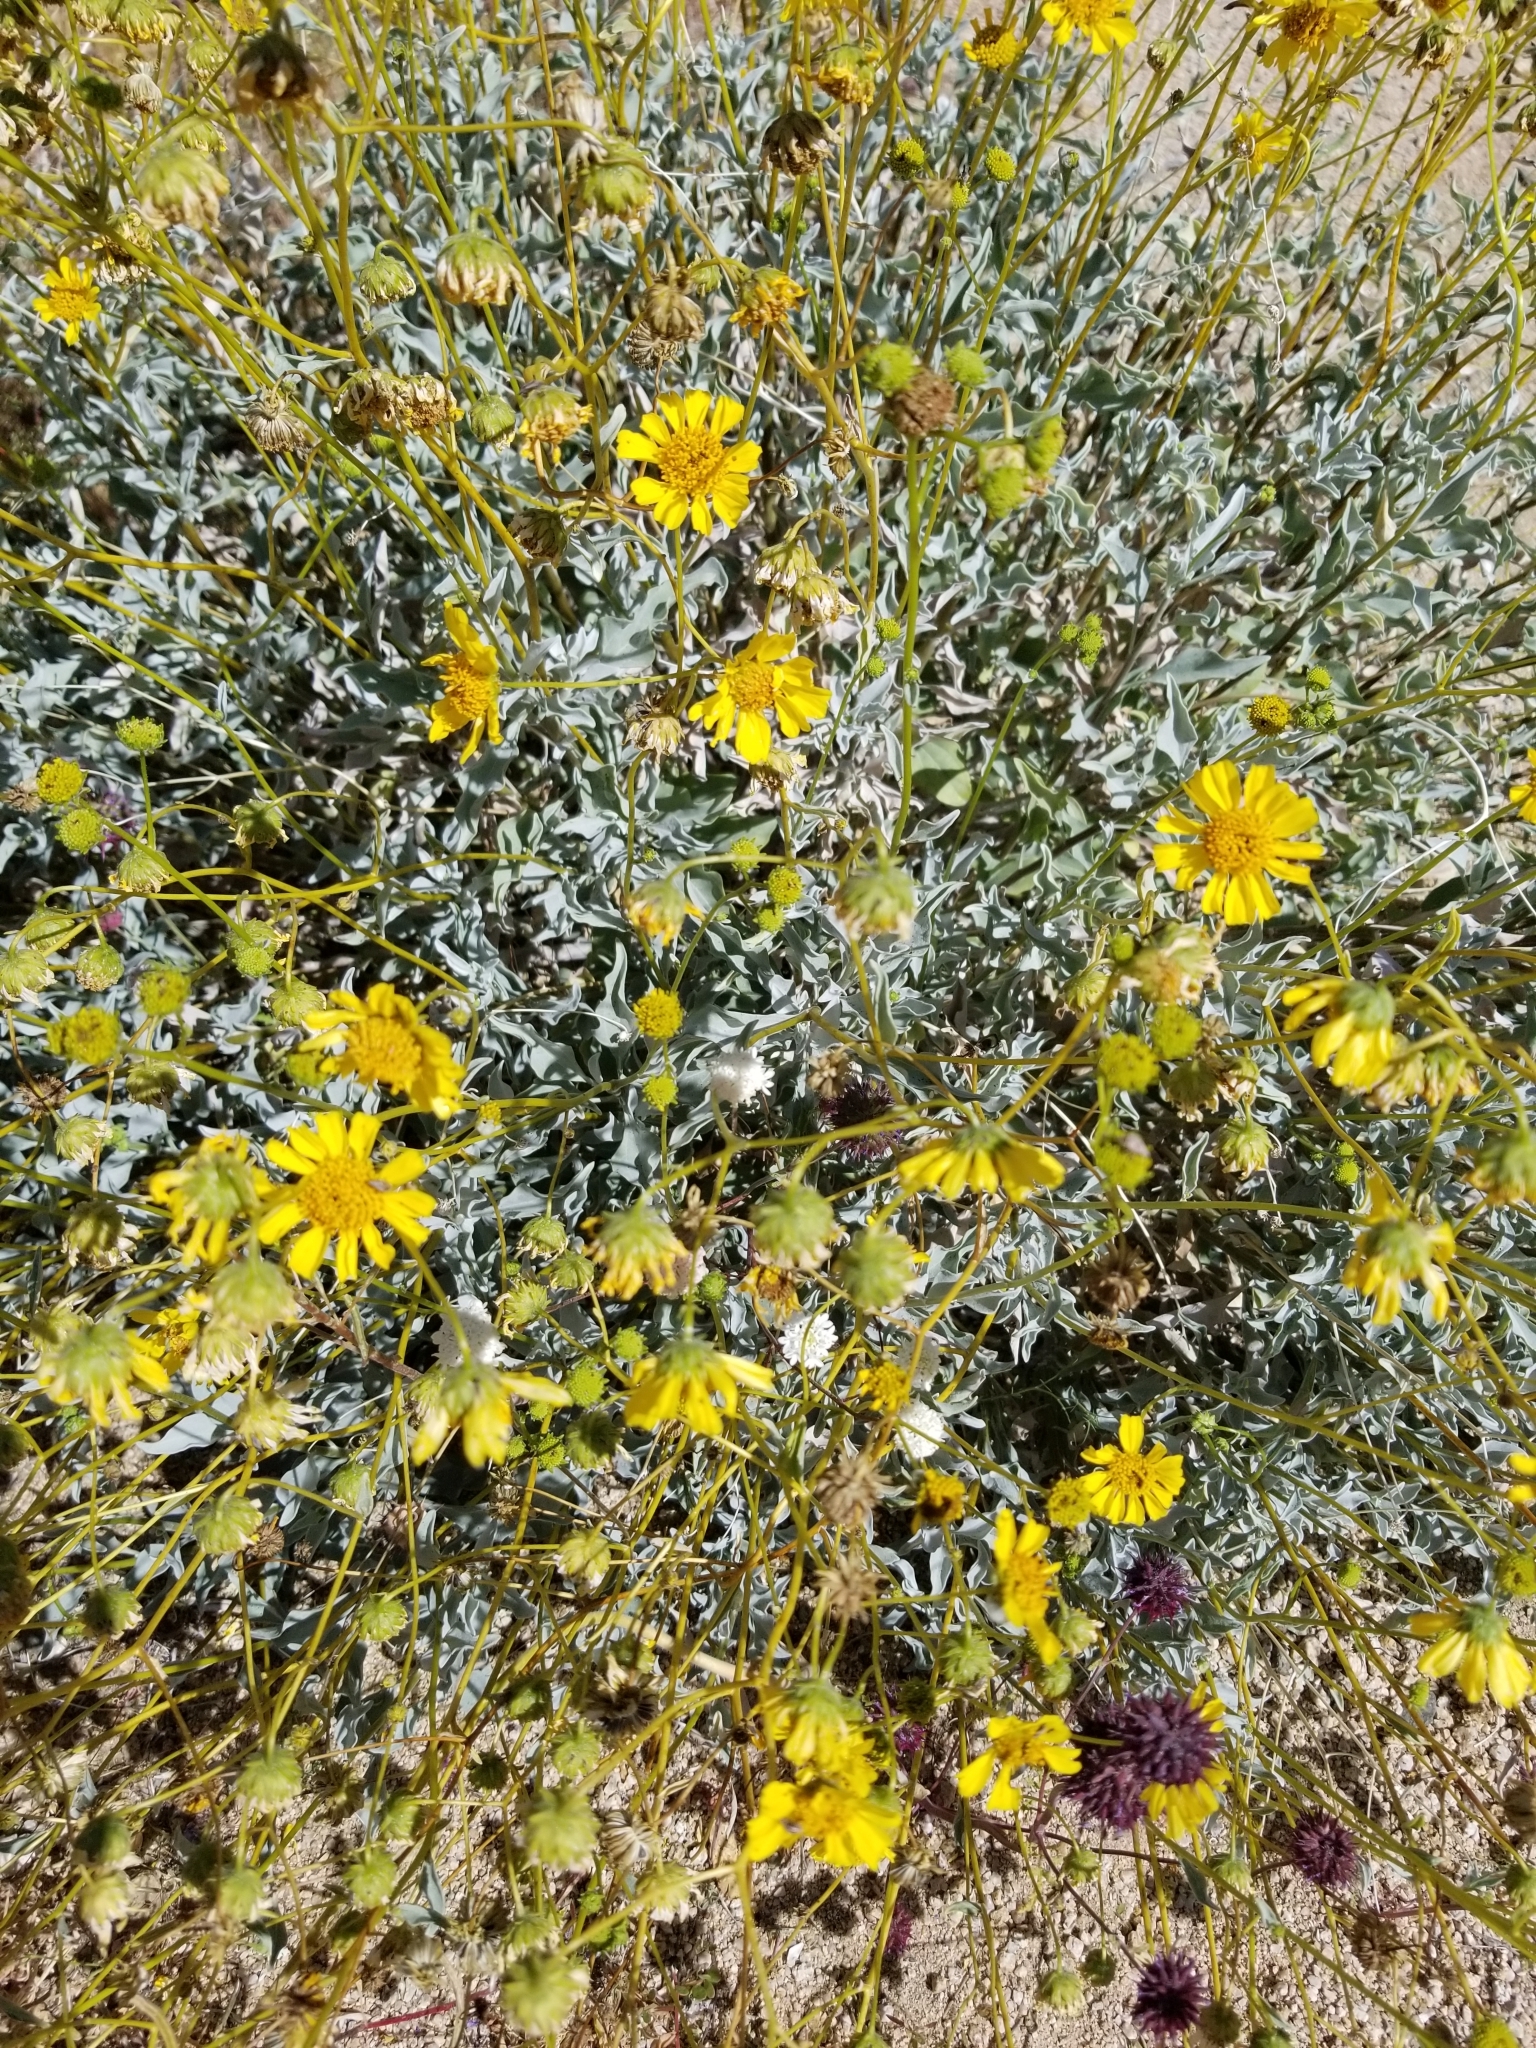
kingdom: Plantae
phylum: Tracheophyta
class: Magnoliopsida
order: Asterales
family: Asteraceae
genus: Encelia
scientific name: Encelia farinosa
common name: Brittlebush
